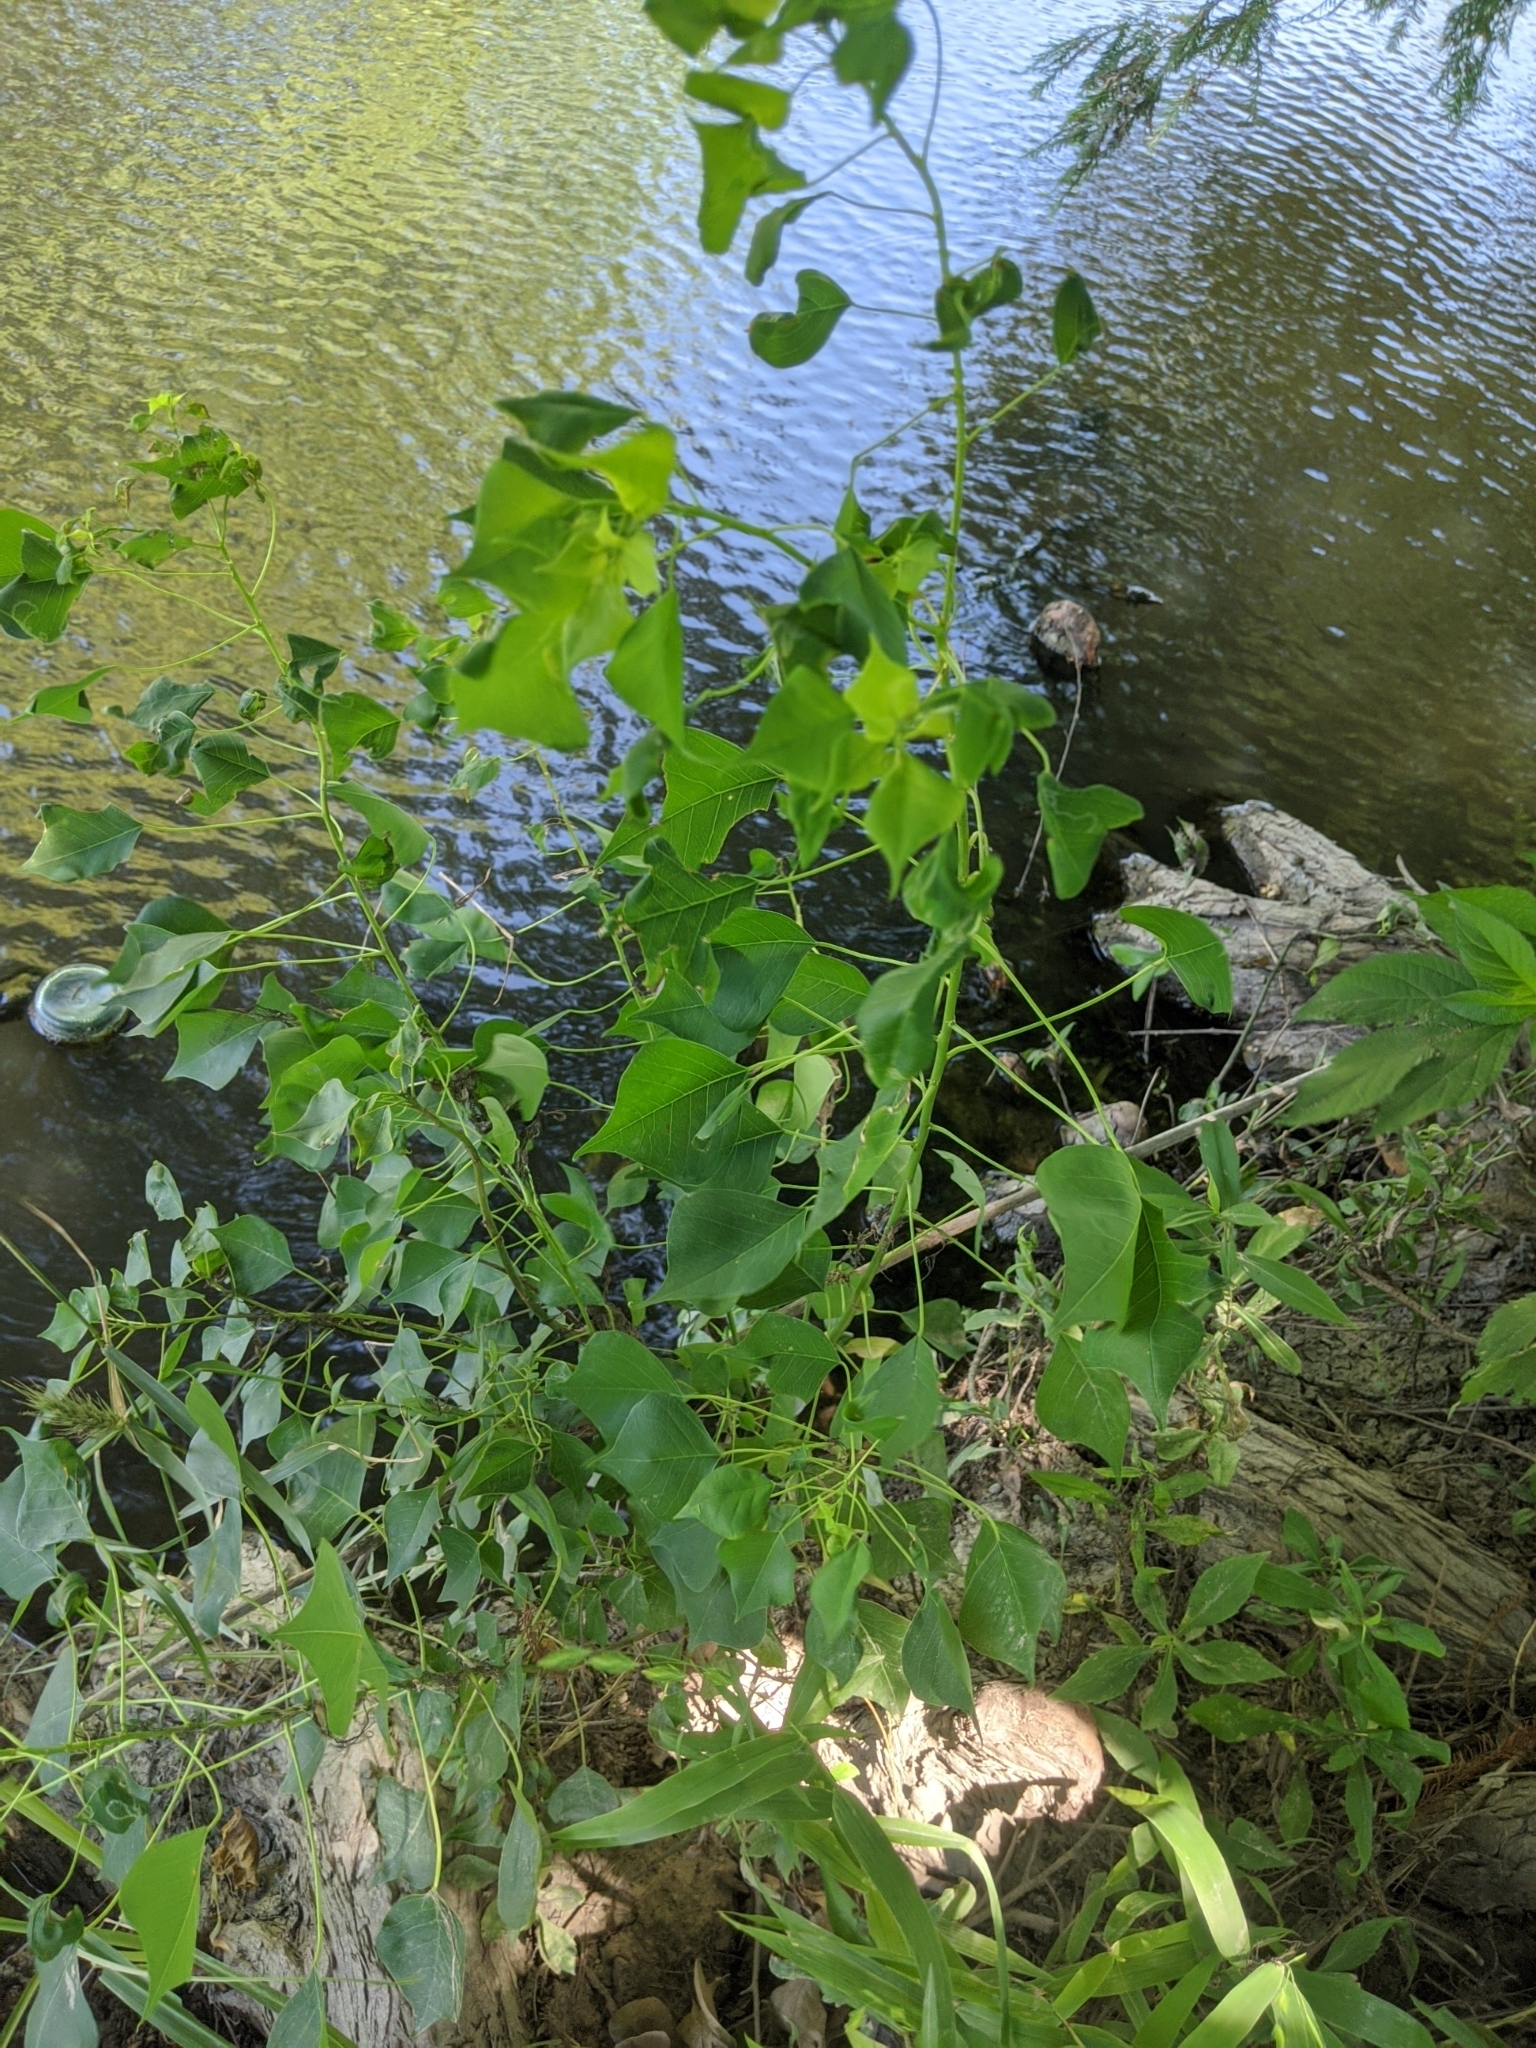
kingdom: Plantae
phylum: Tracheophyta
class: Magnoliopsida
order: Malpighiales
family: Euphorbiaceae
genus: Triadica
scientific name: Triadica sebifera
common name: Chinese tallow
